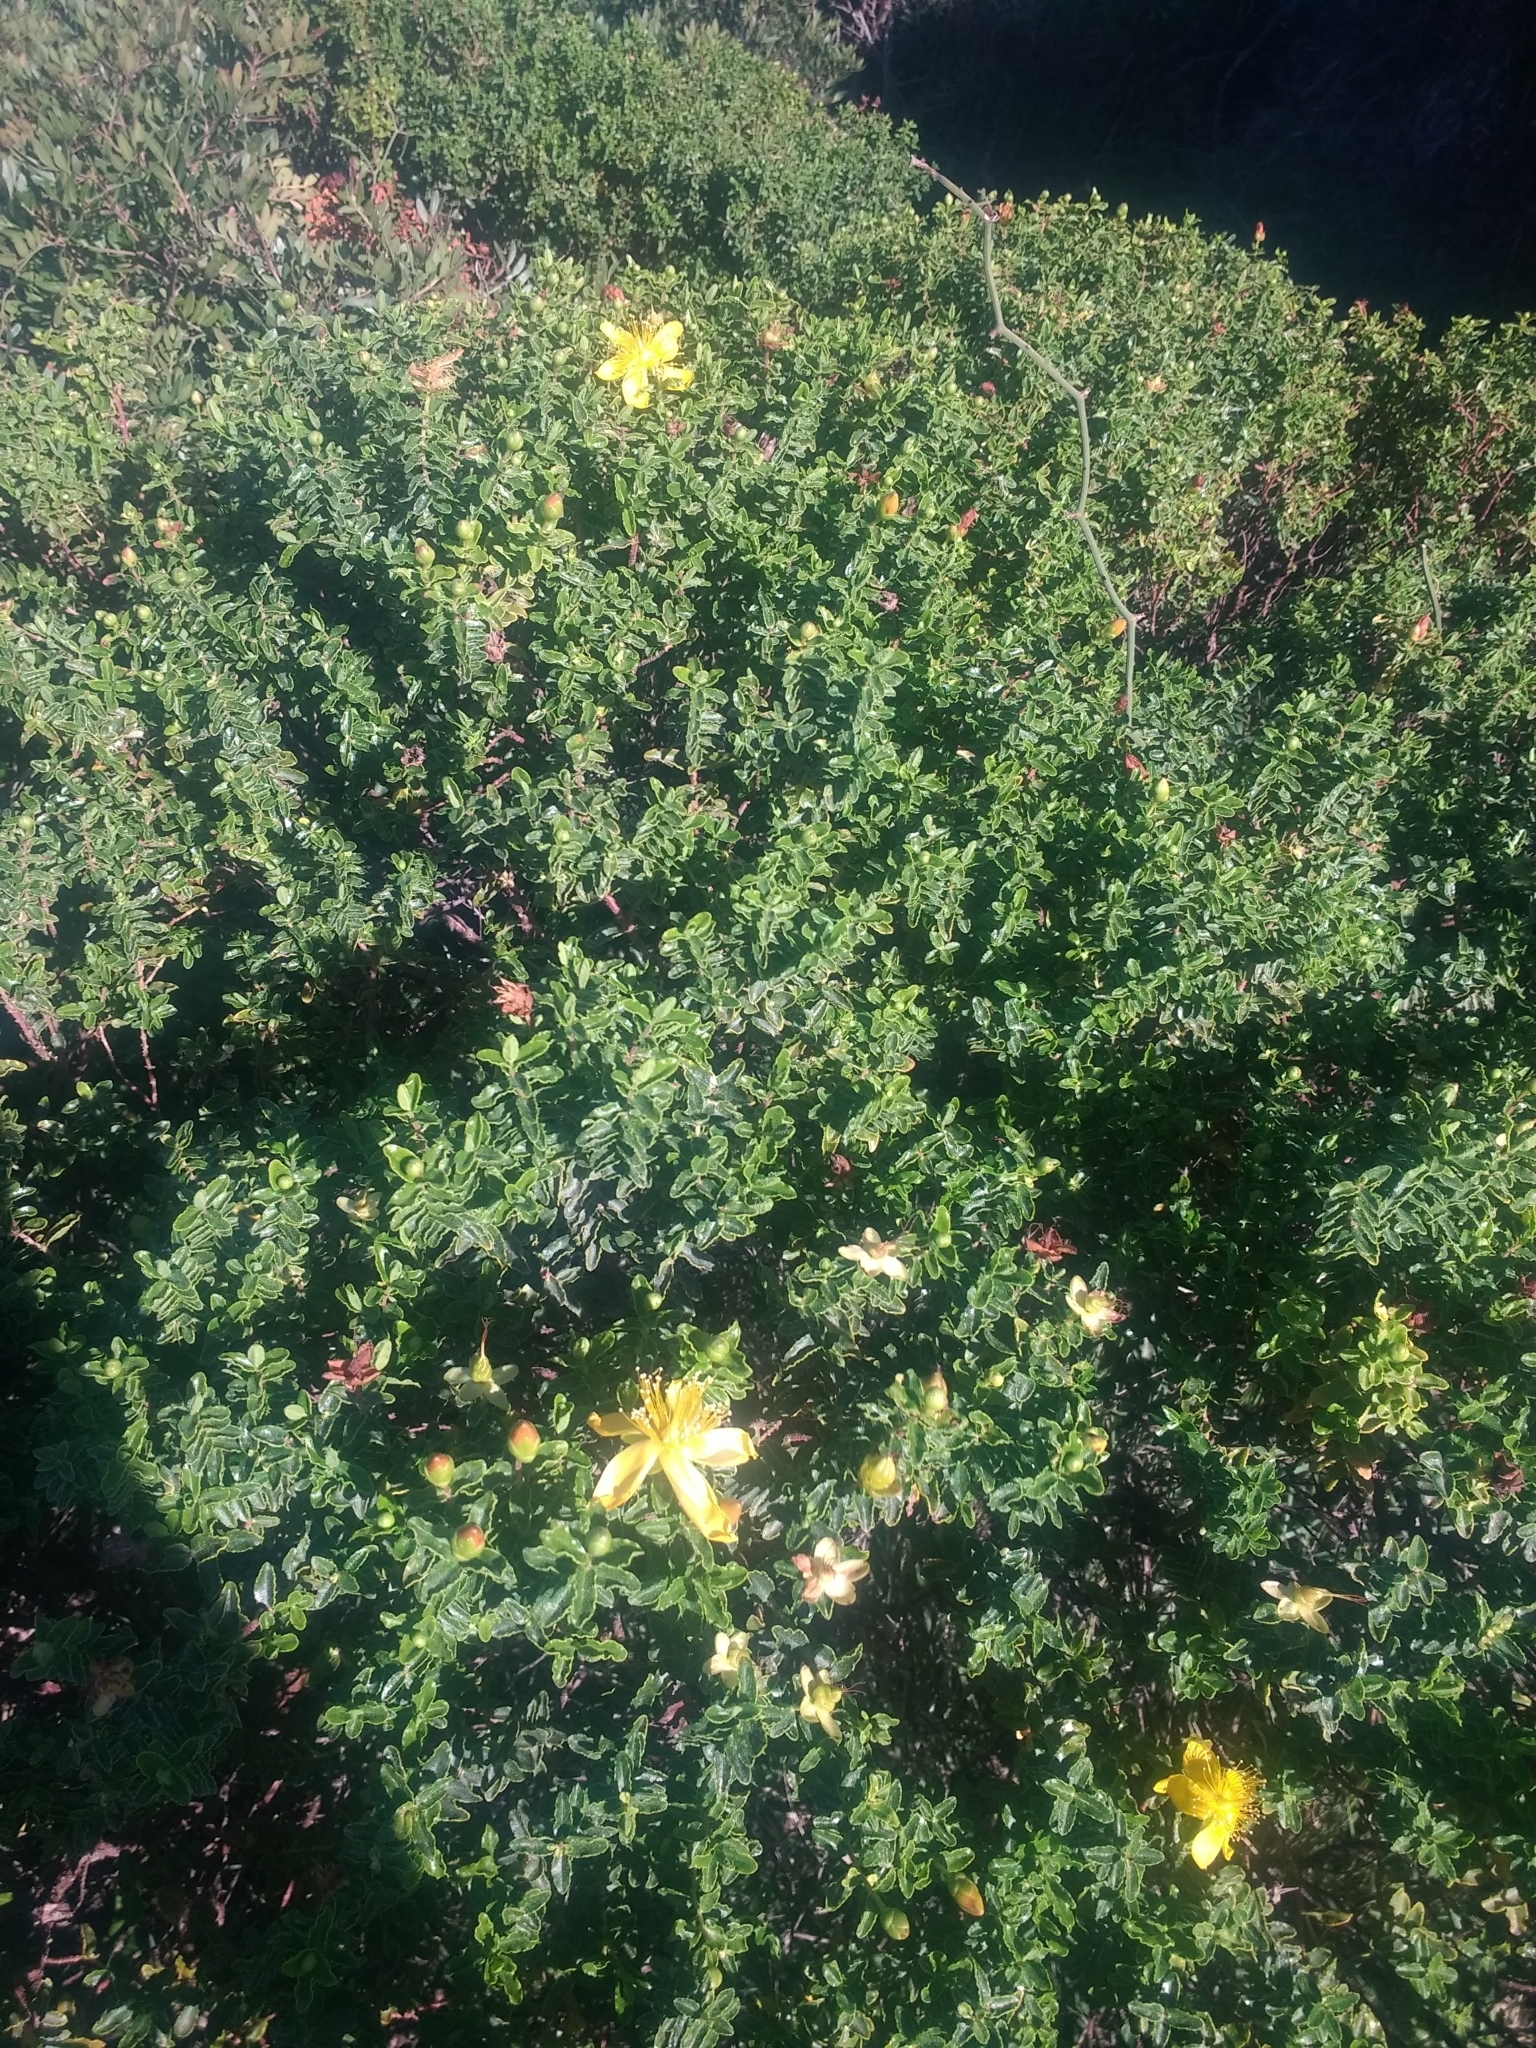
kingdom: Plantae
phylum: Tracheophyta
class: Magnoliopsida
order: Malpighiales
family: Hypericaceae
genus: Hypericum
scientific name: Hypericum balearicum
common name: Majorca st john's wort
